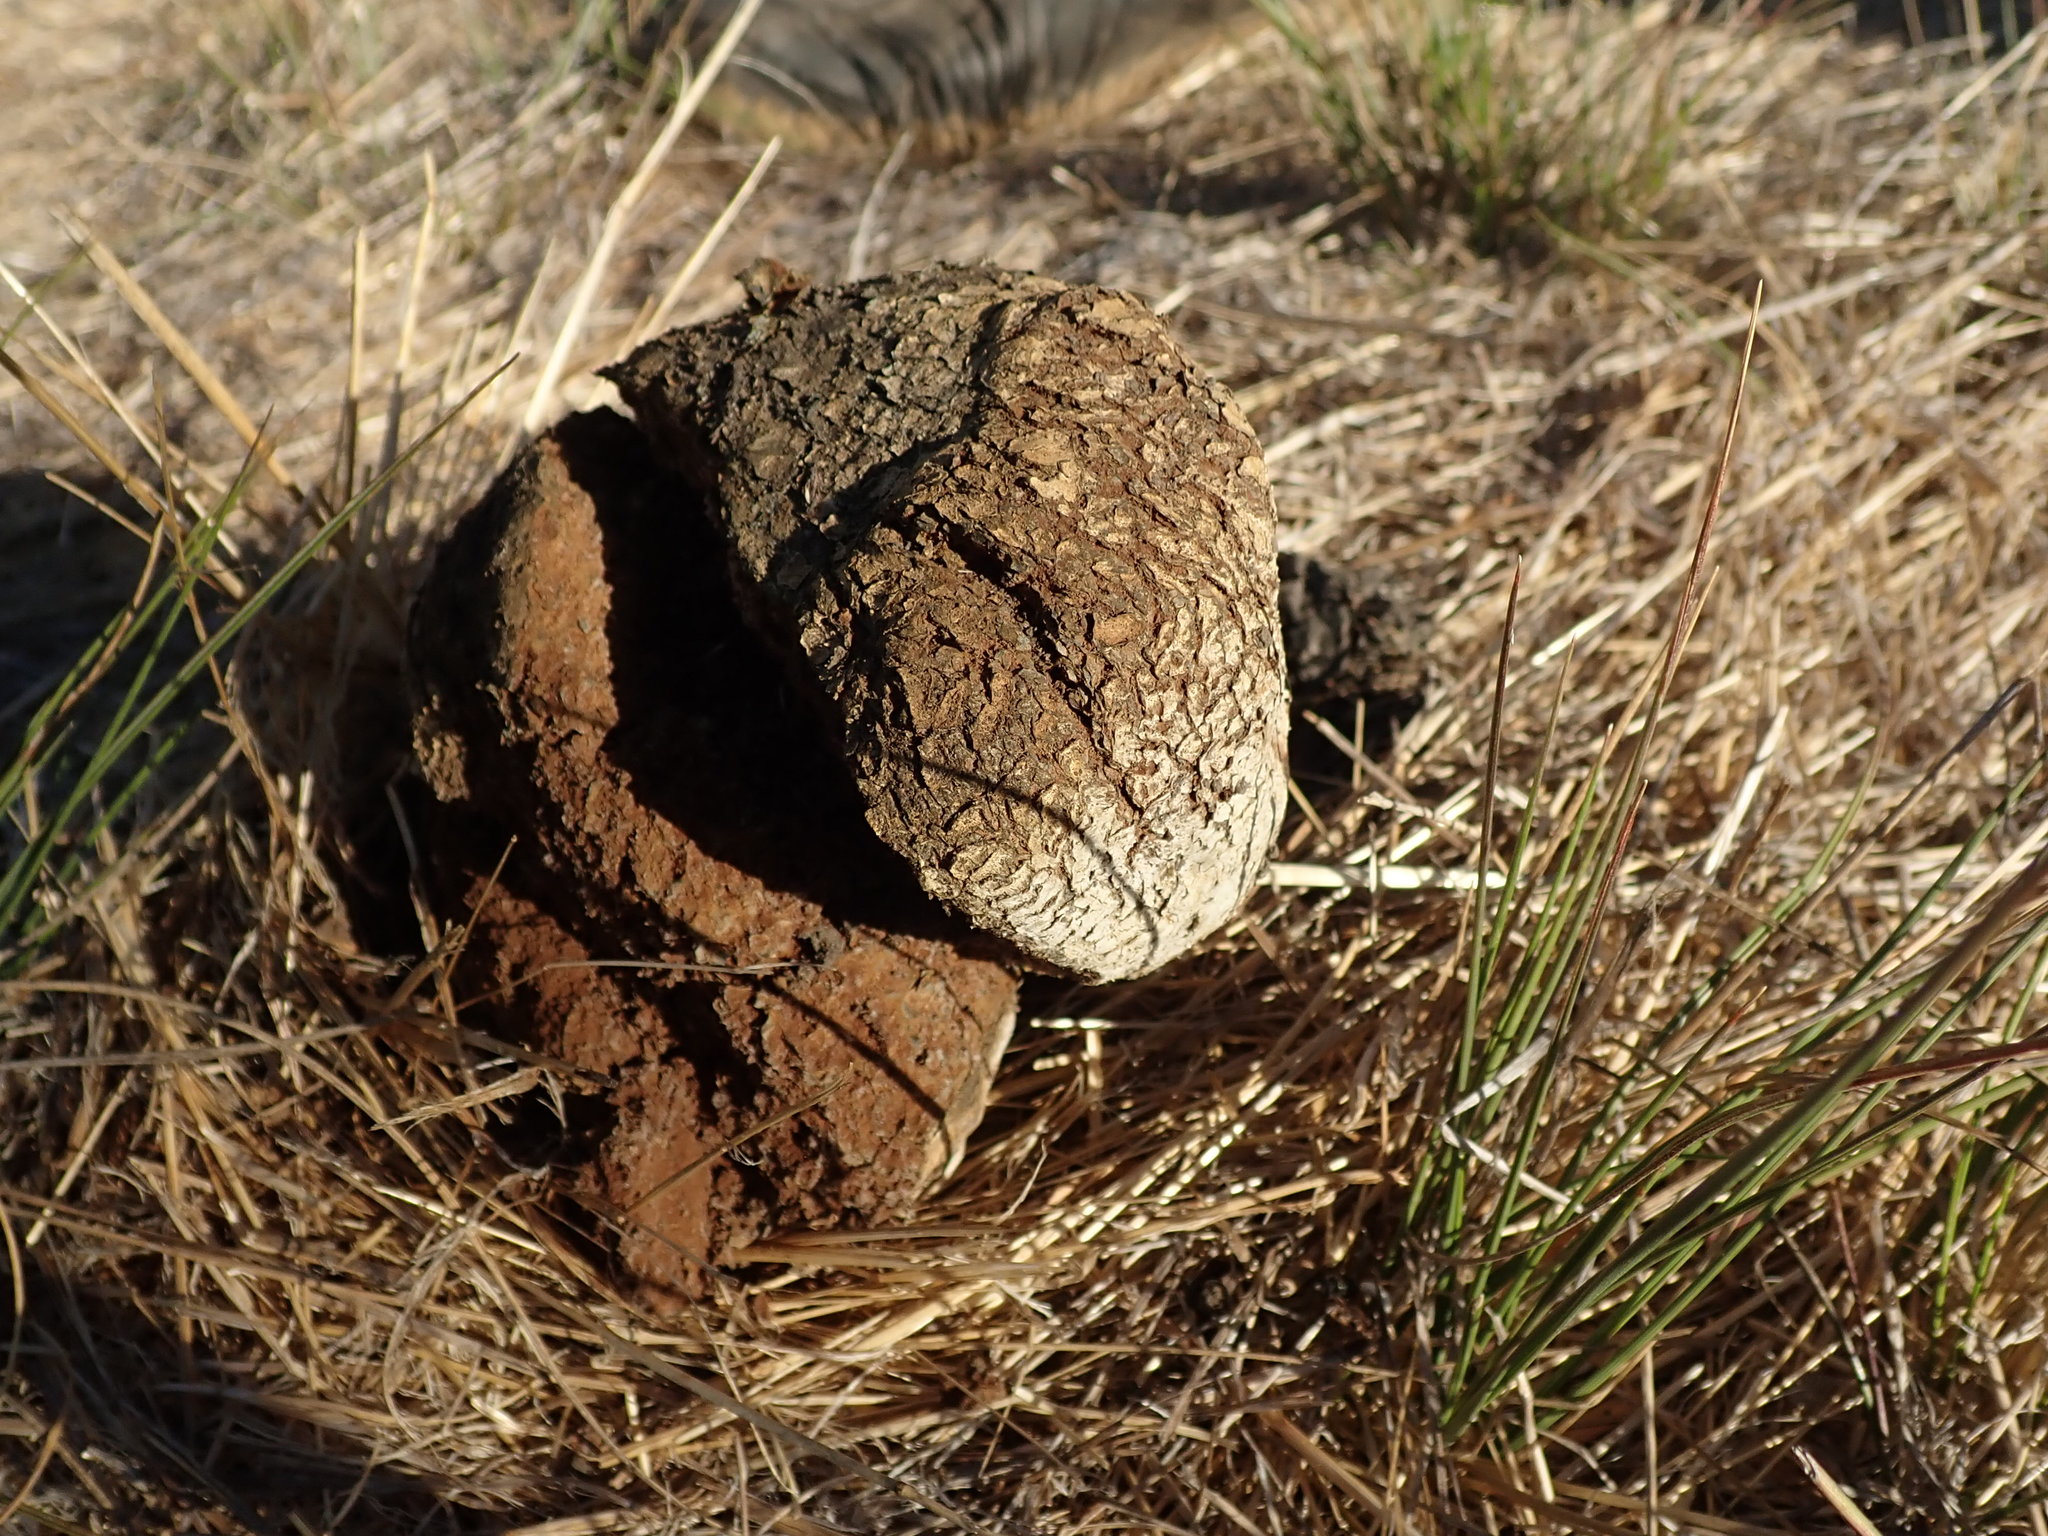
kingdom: Fungi
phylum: Basidiomycota
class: Agaricomycetes
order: Boletales
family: Sclerodermataceae
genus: Pisolithus
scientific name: Pisolithus tinctorius
